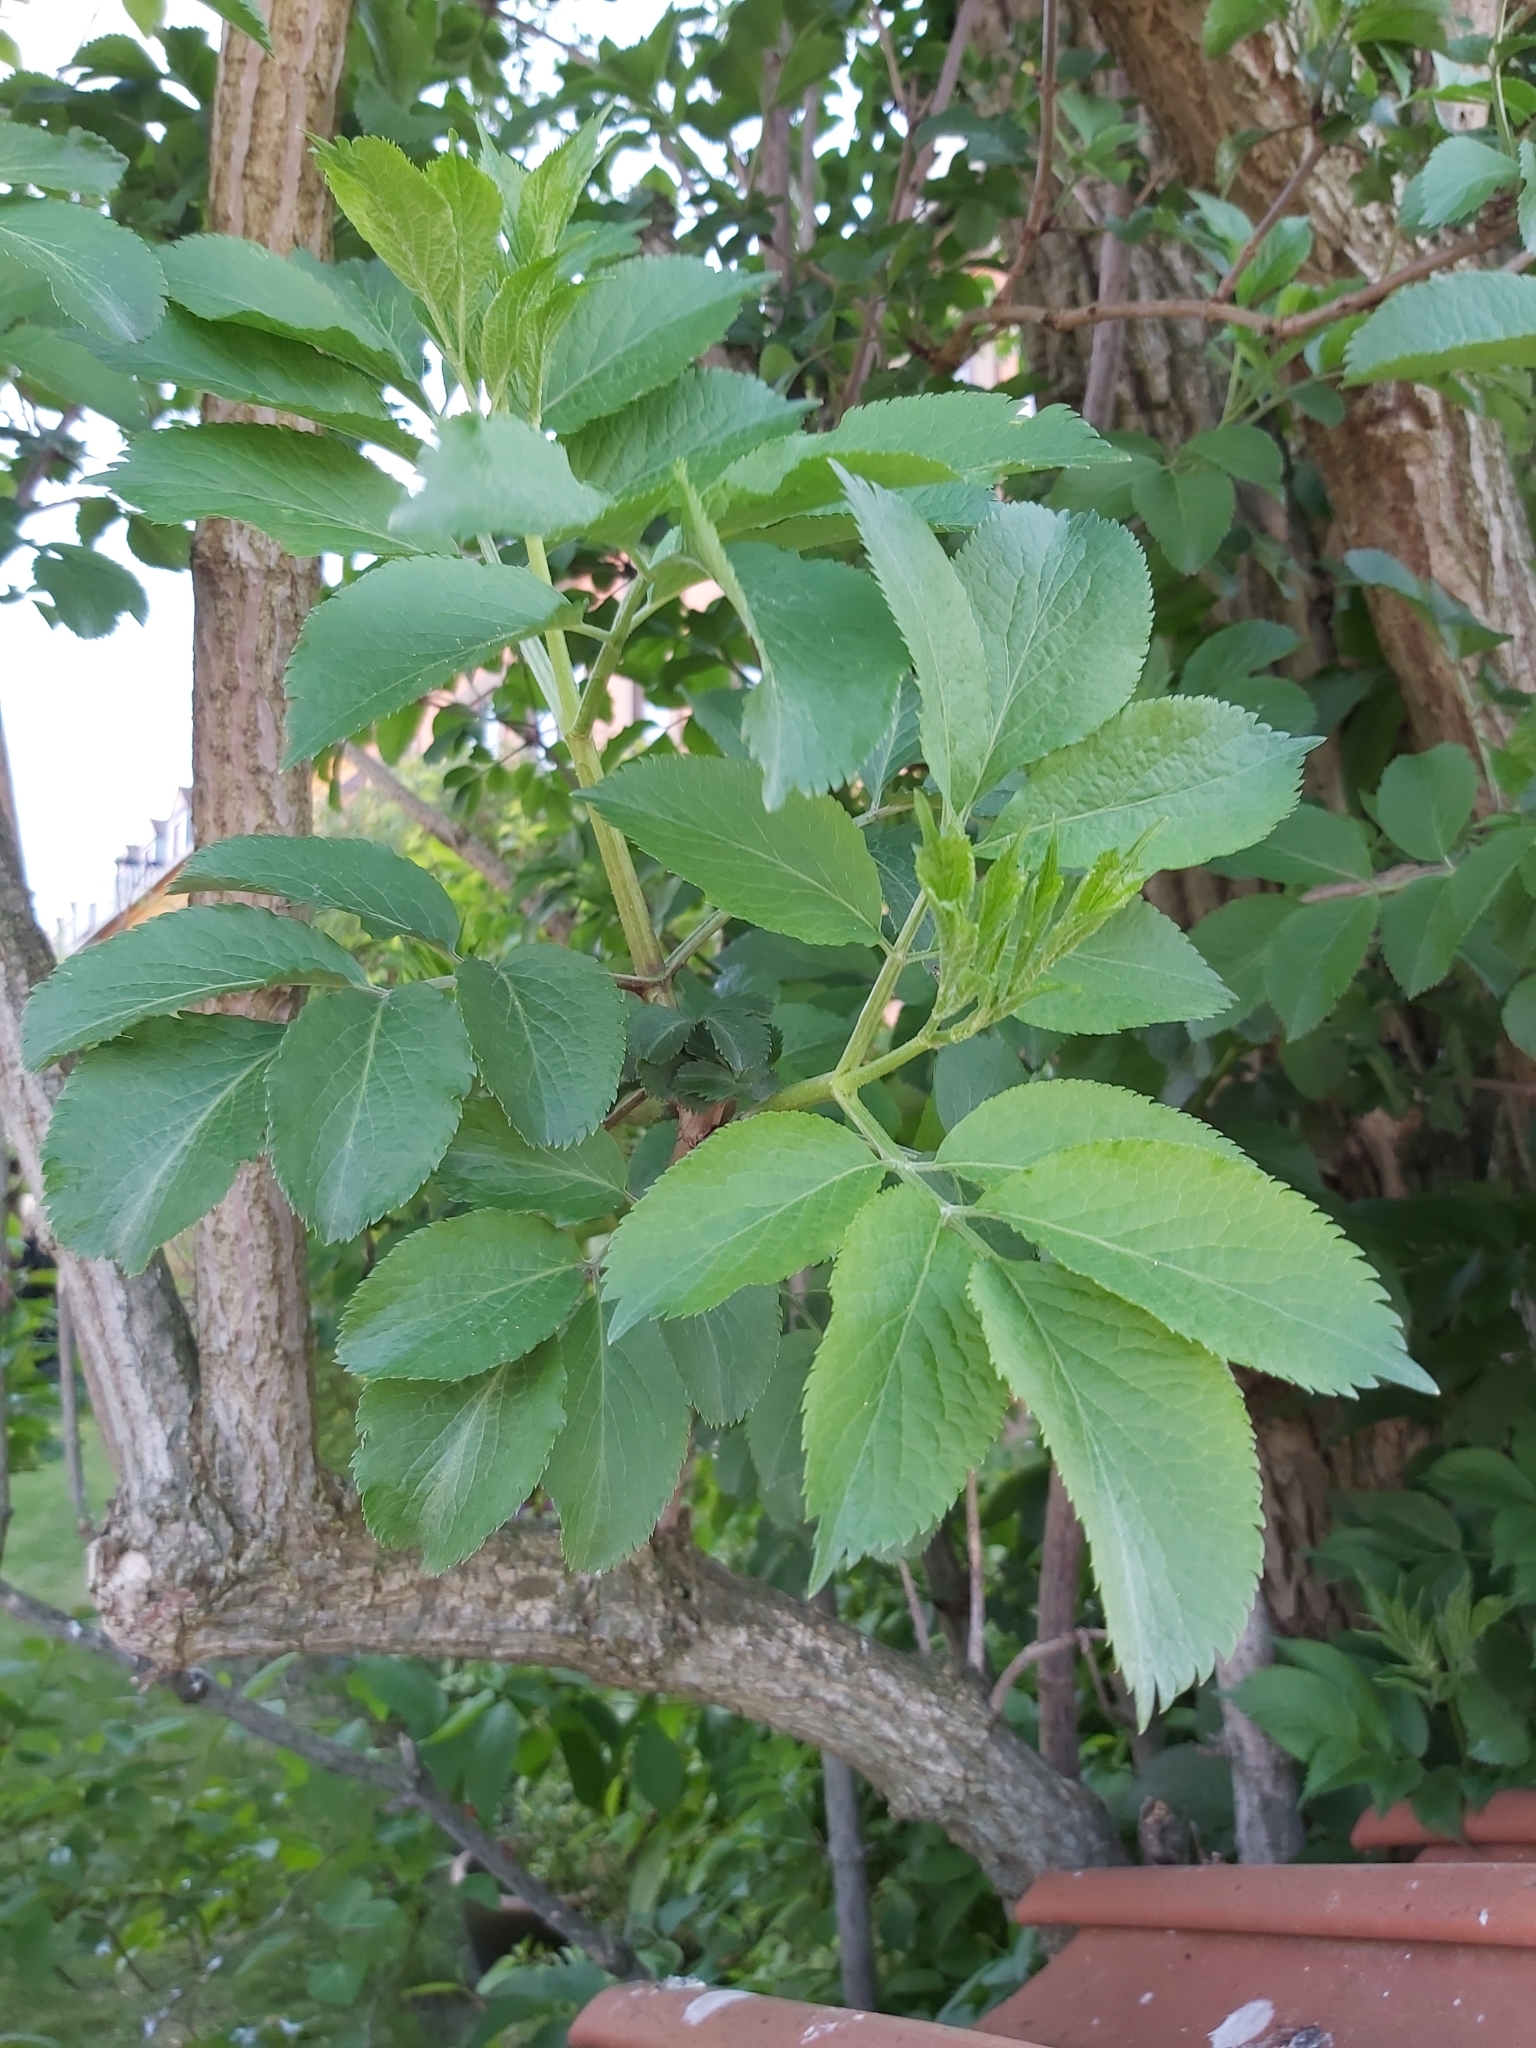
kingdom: Plantae
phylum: Tracheophyta
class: Magnoliopsida
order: Dipsacales
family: Viburnaceae
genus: Sambucus
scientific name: Sambucus nigra
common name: Elder
